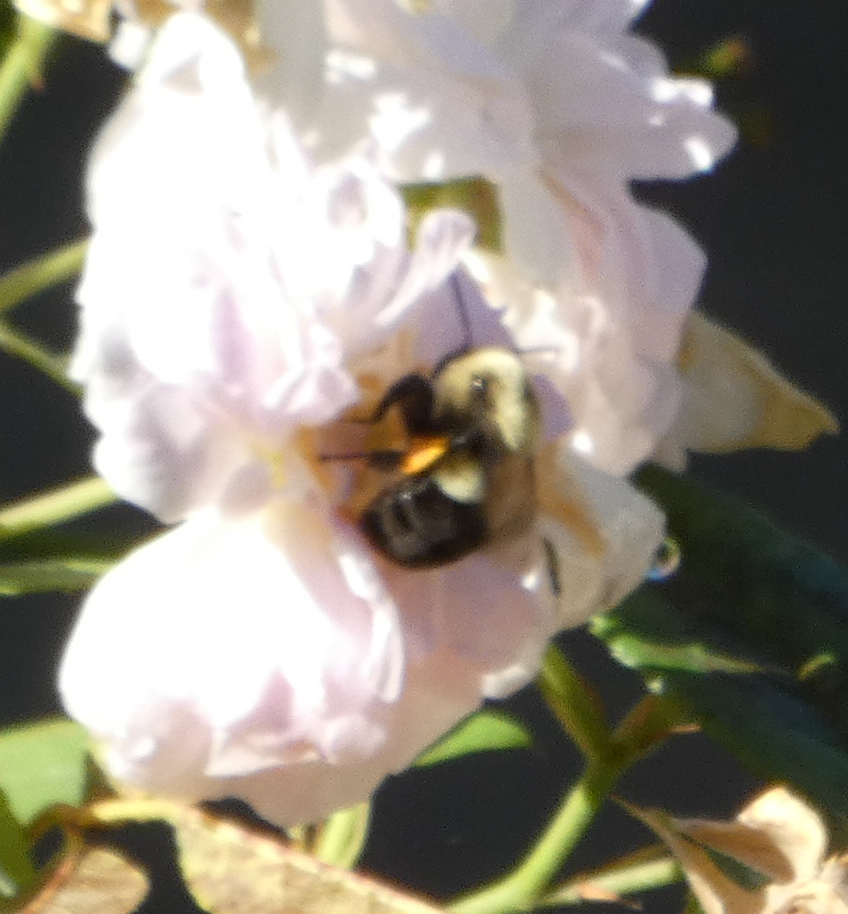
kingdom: Animalia
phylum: Arthropoda
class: Insecta
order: Hymenoptera
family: Apidae
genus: Bombus
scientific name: Bombus impatiens
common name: Common eastern bumble bee
